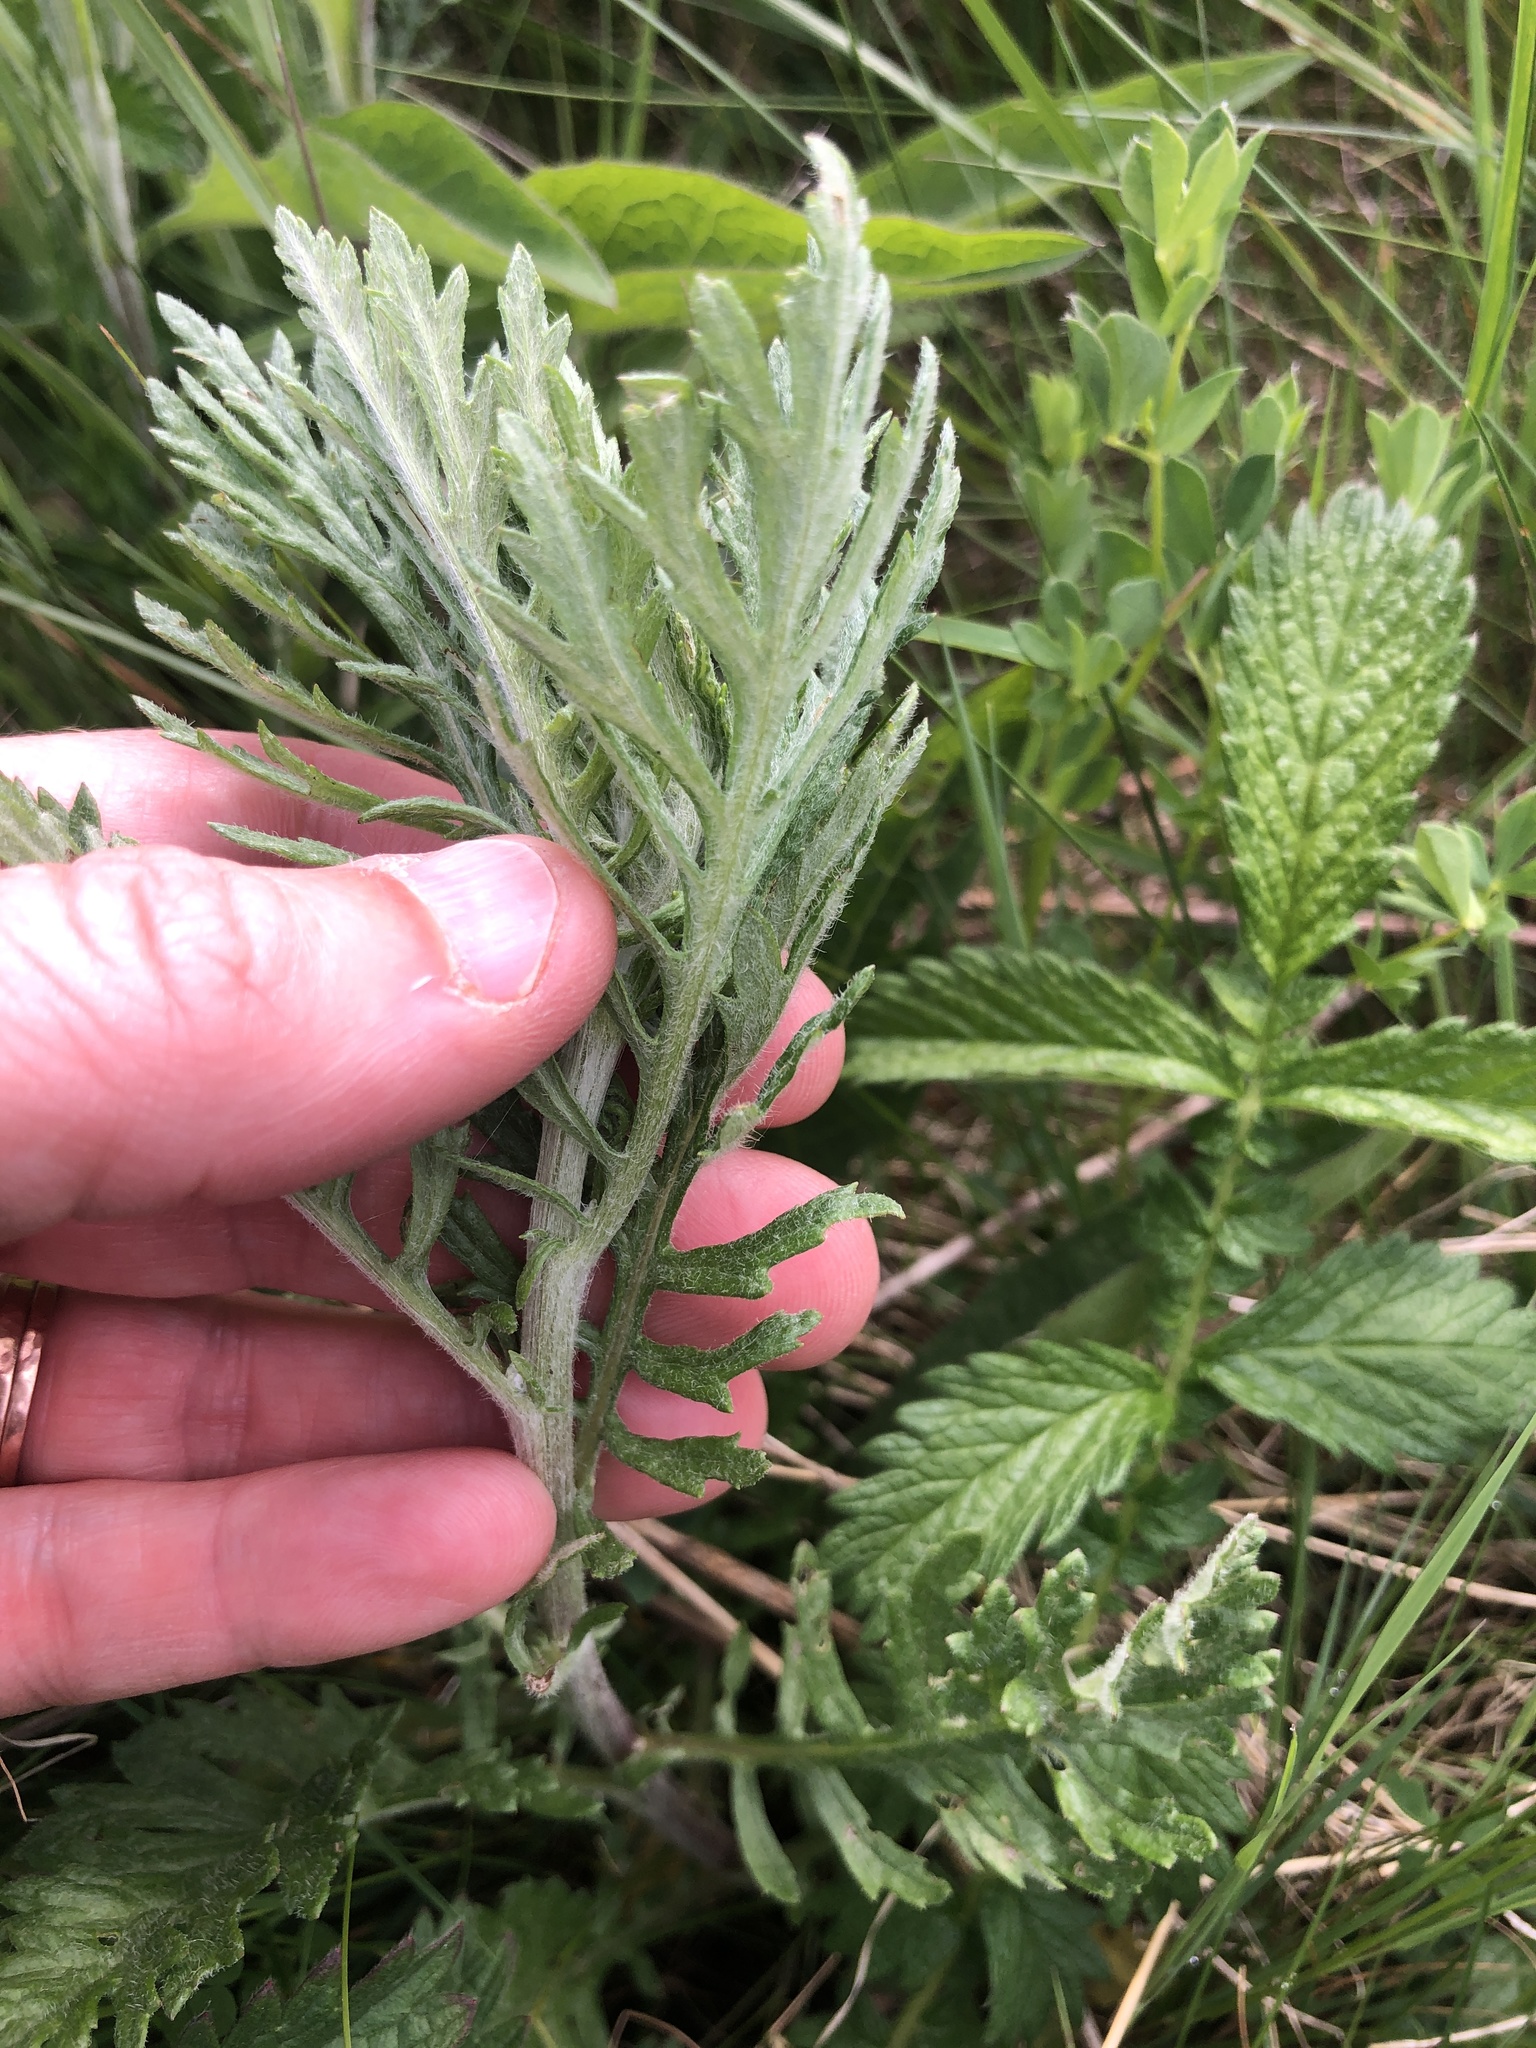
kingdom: Plantae
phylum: Tracheophyta
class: Magnoliopsida
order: Asterales
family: Asteraceae
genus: Jacobaea
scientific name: Jacobaea erucifolia
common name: Hoary ragwort
